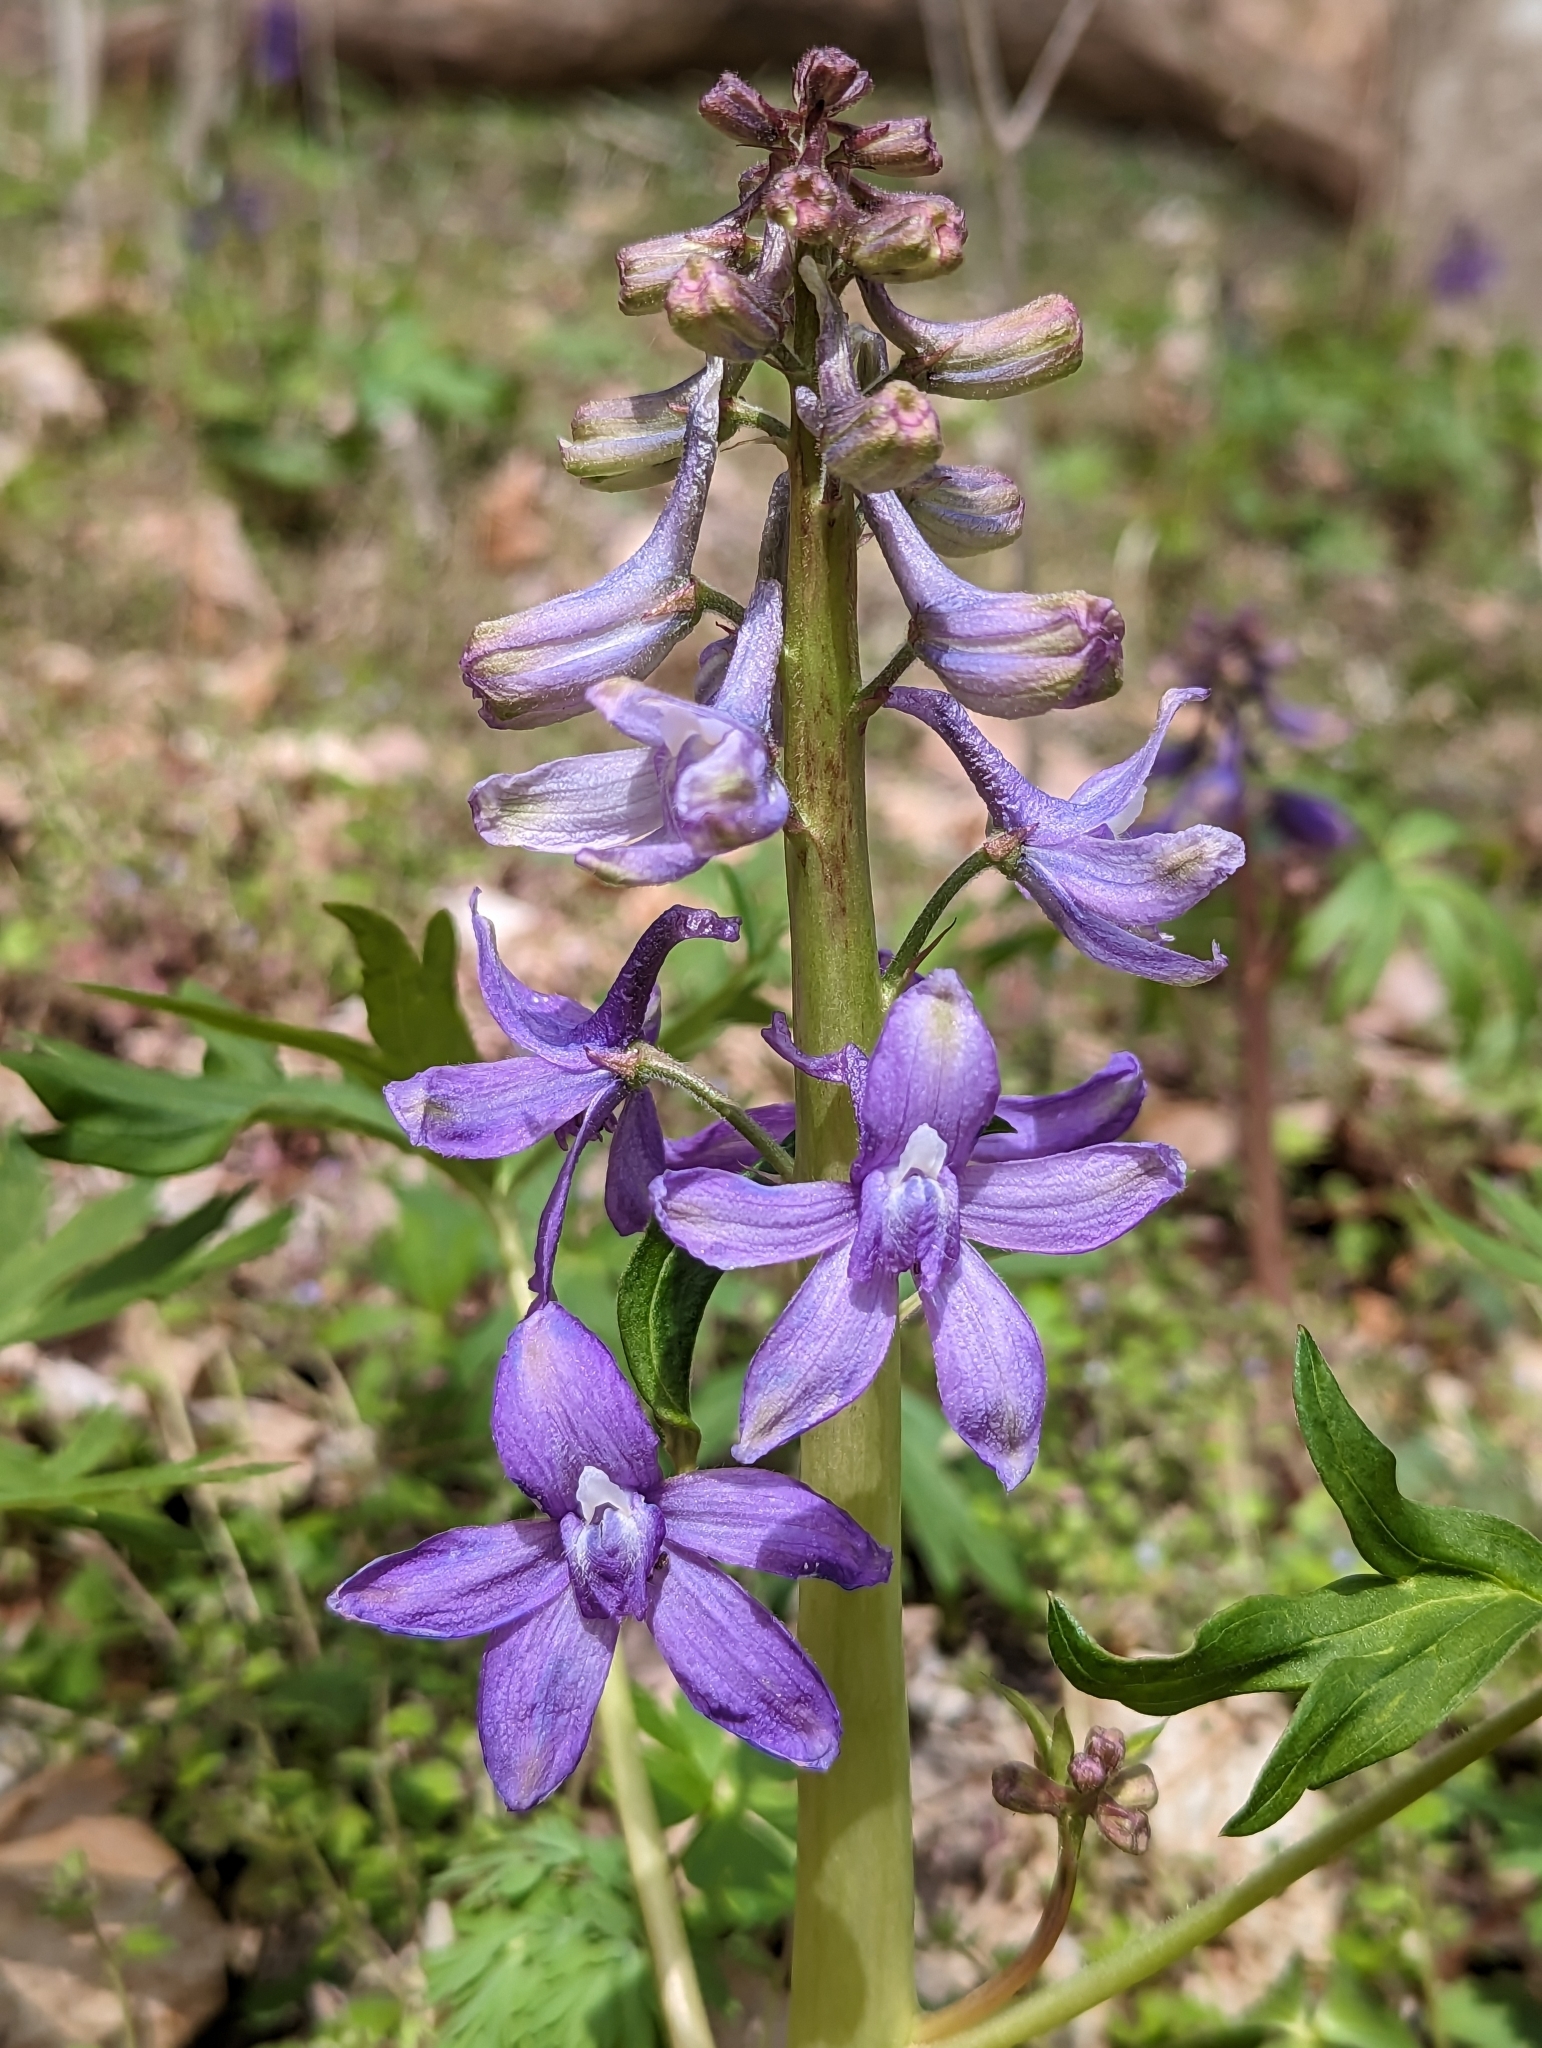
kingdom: Plantae
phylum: Tracheophyta
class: Magnoliopsida
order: Ranunculales
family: Ranunculaceae
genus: Delphinium
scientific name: Delphinium tricorne
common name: Dwarf larkspur
